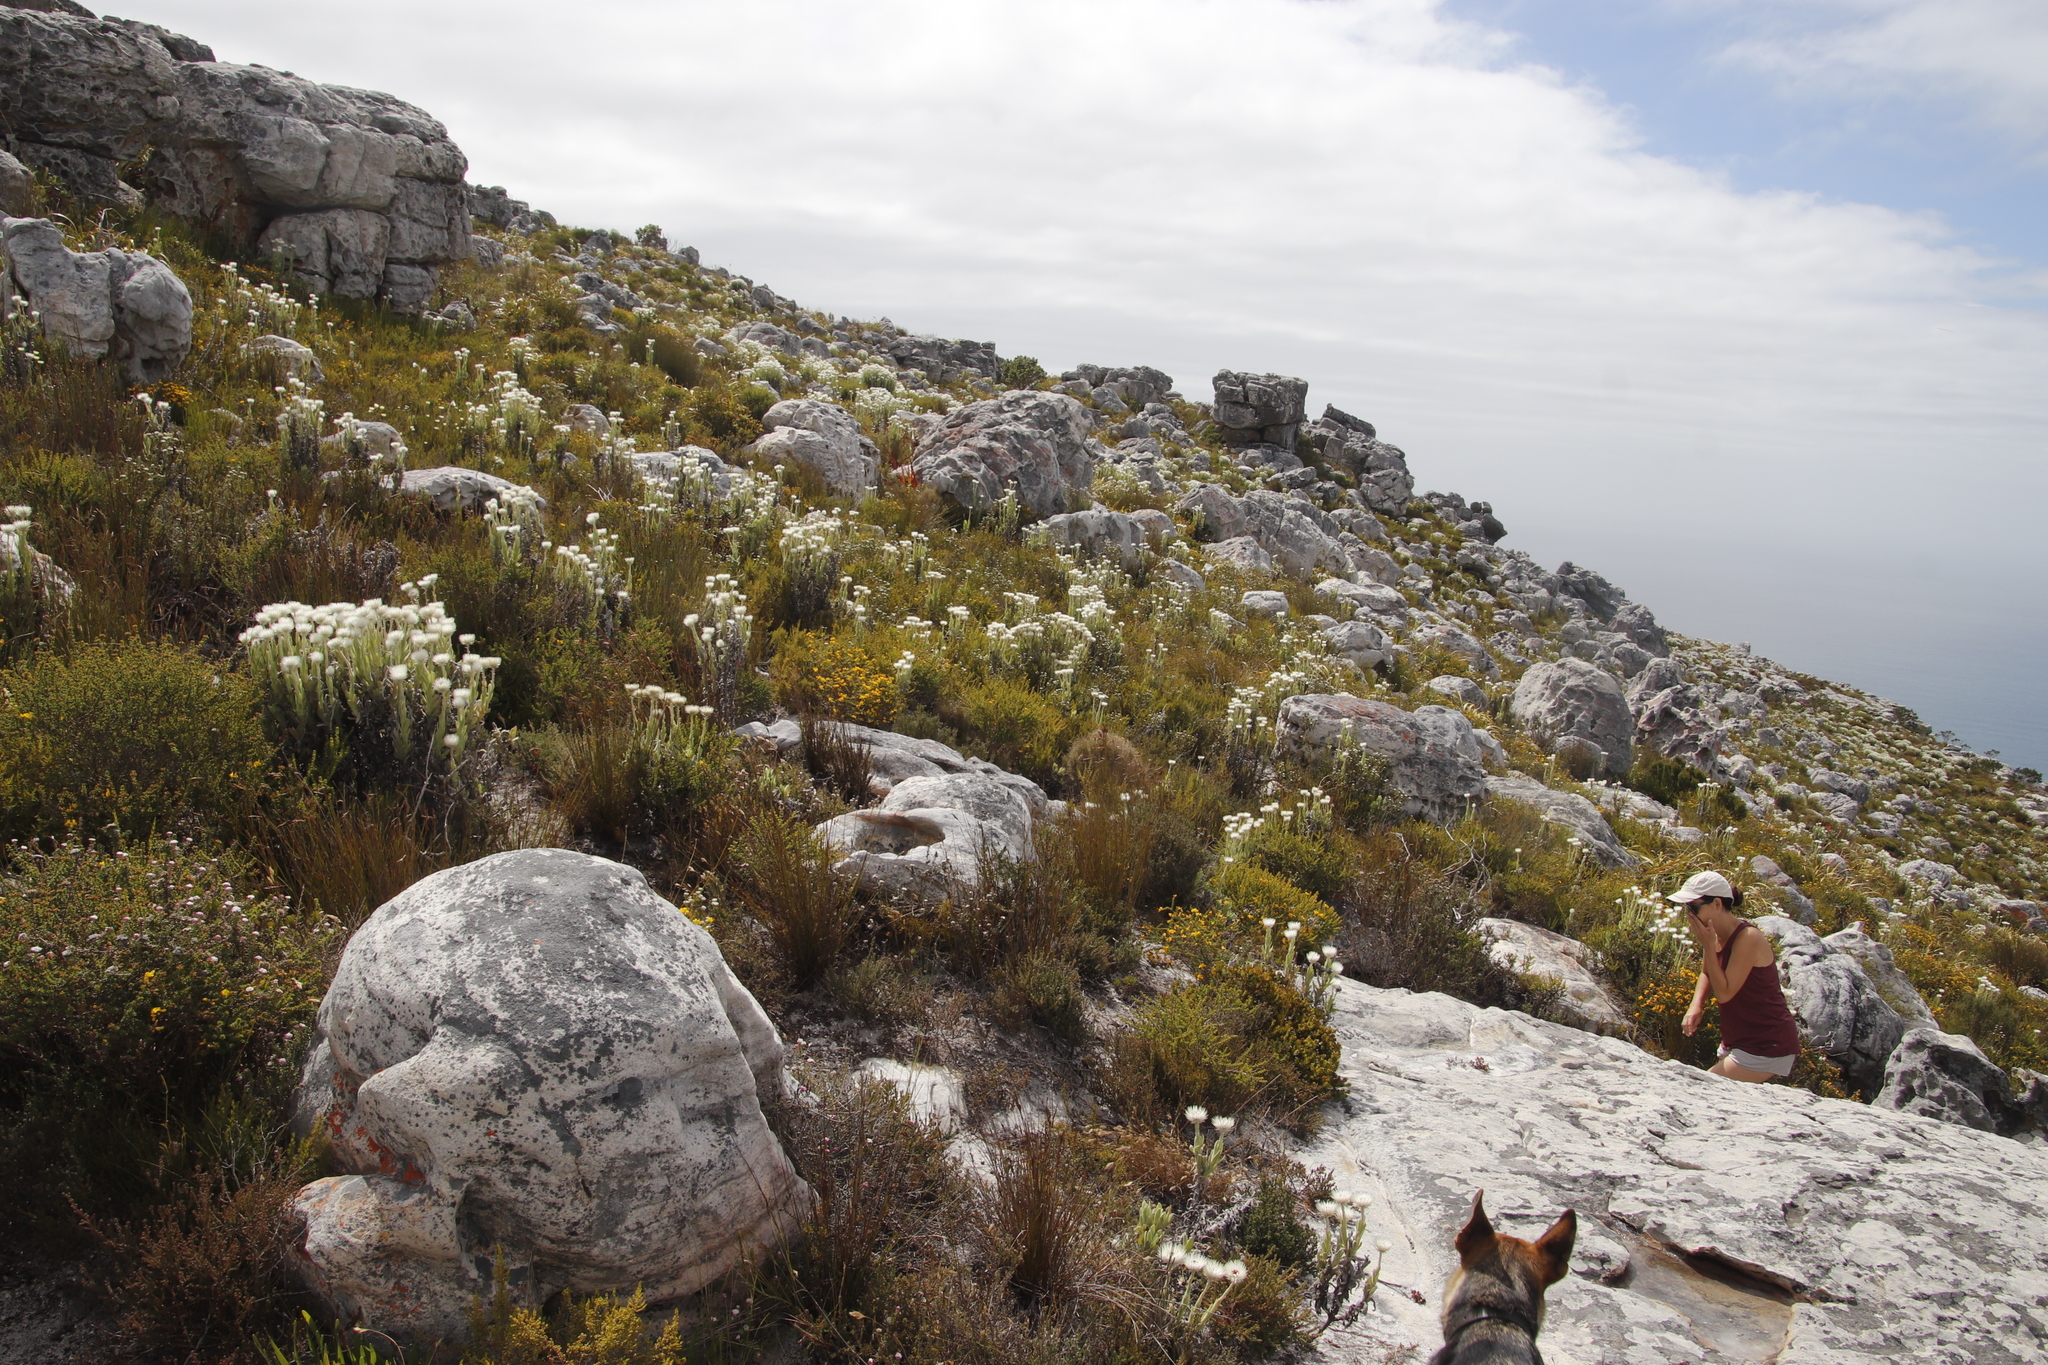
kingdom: Plantae
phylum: Tracheophyta
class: Magnoliopsida
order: Asterales
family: Asteraceae
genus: Syncarpha
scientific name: Syncarpha vestita
